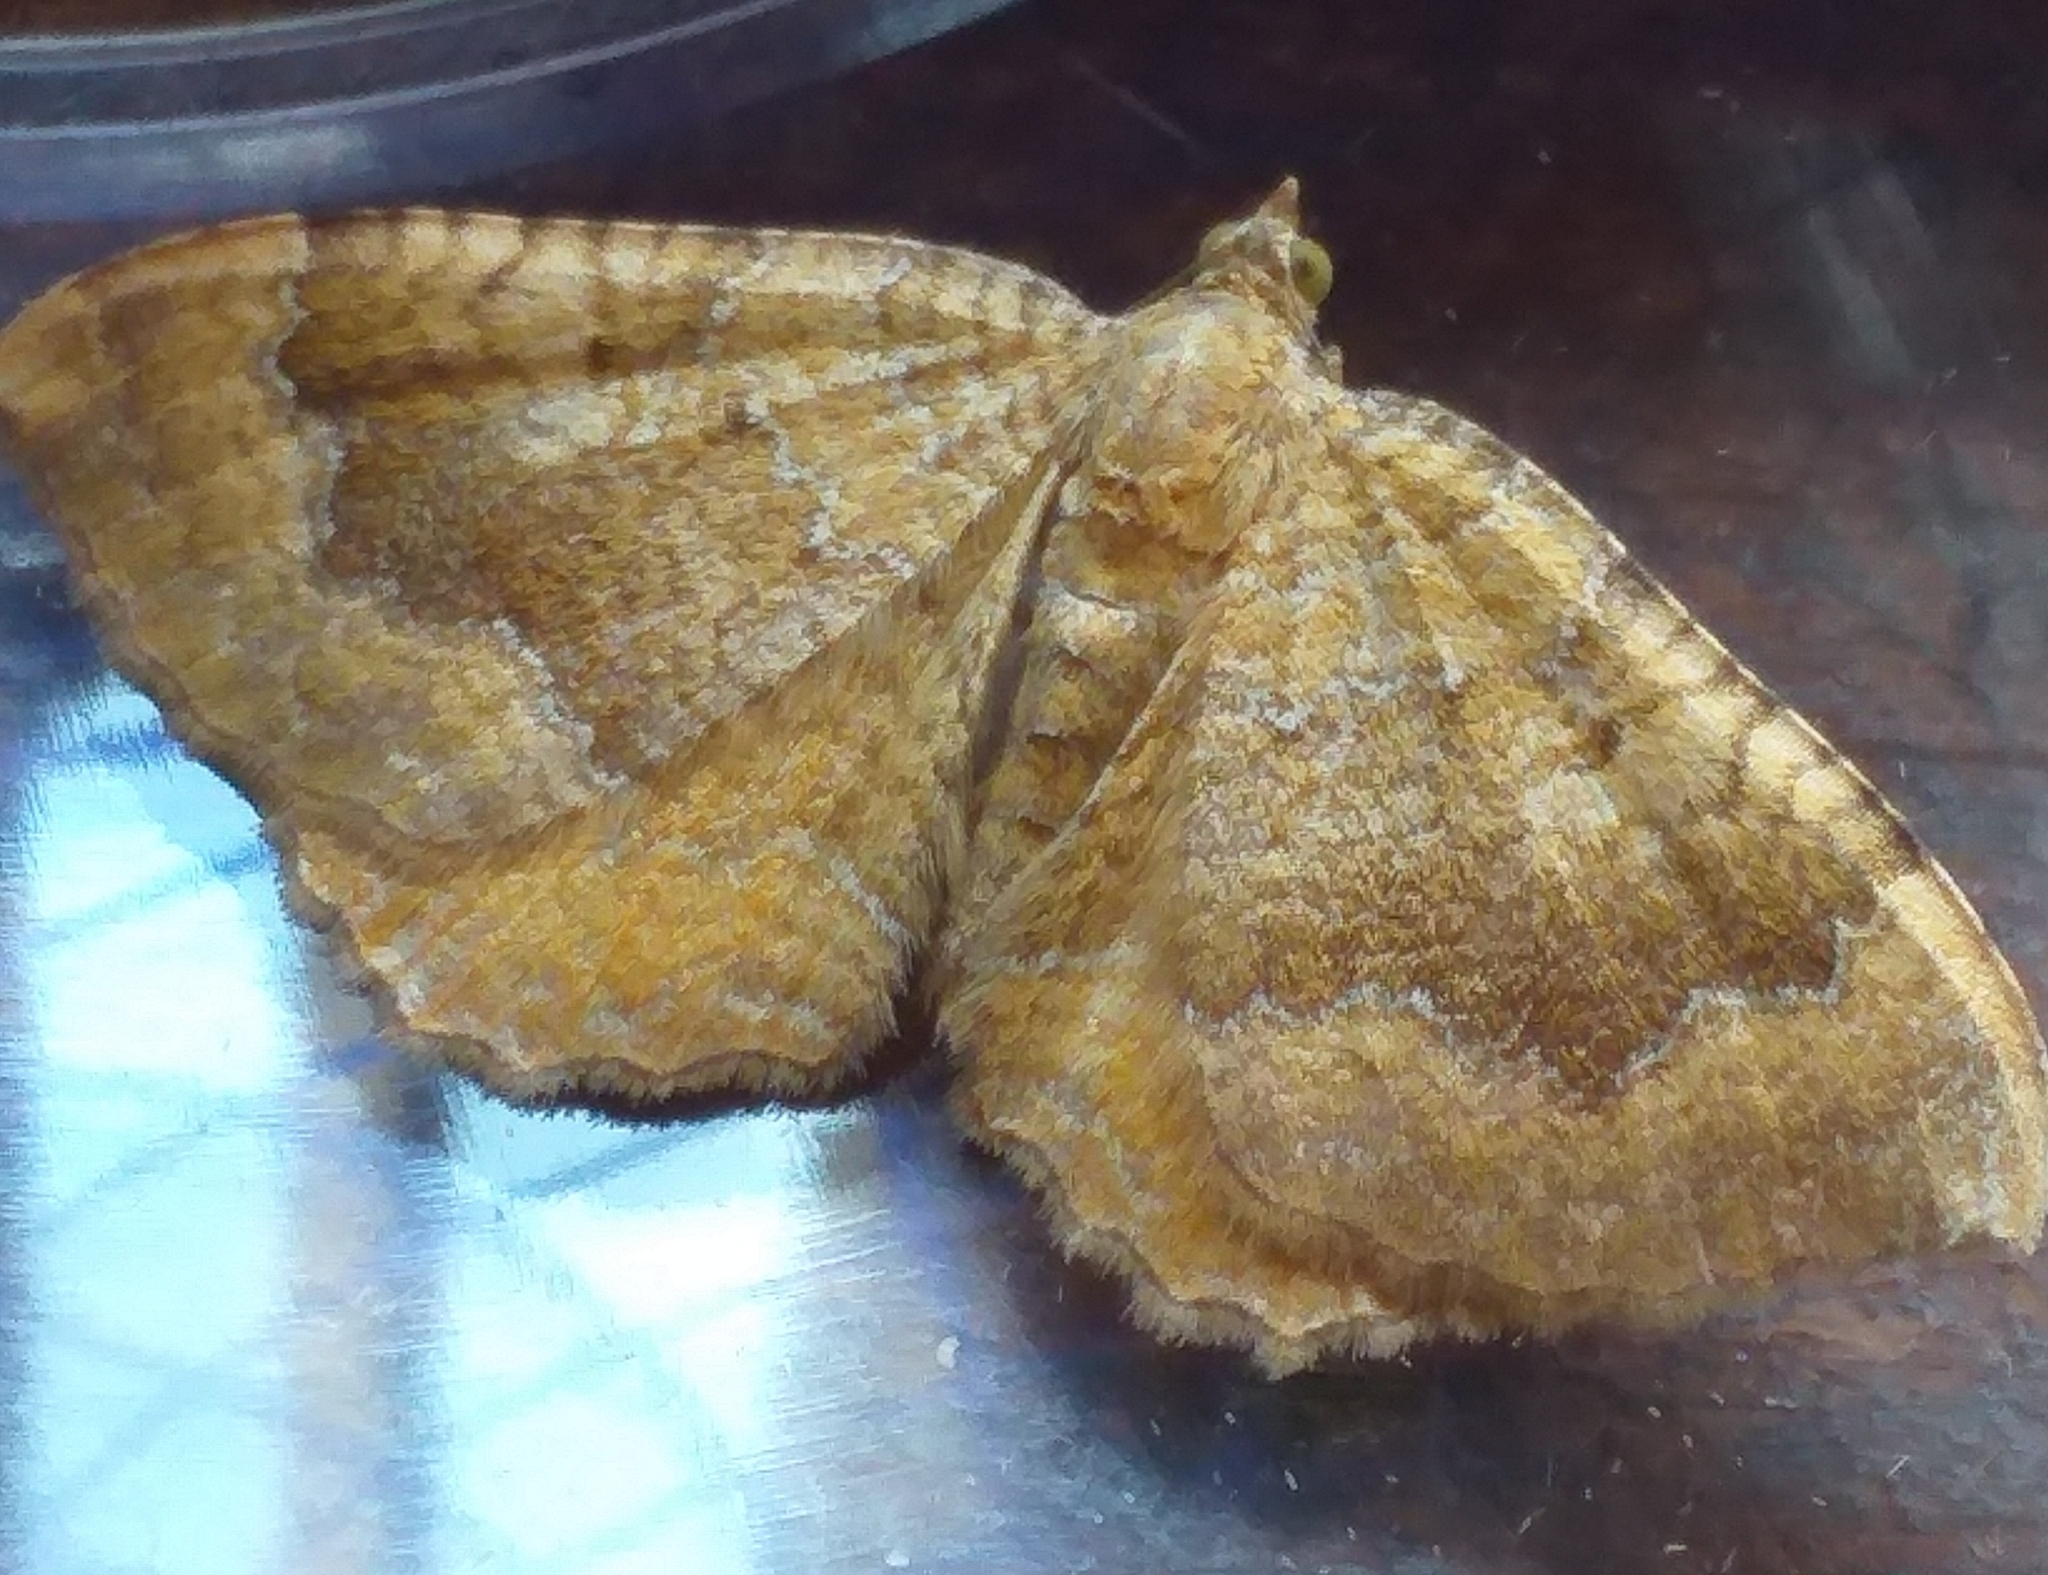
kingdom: Animalia
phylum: Arthropoda
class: Insecta
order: Lepidoptera
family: Geometridae
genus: Camptogramma
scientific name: Camptogramma bilineata
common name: Yellow shell
